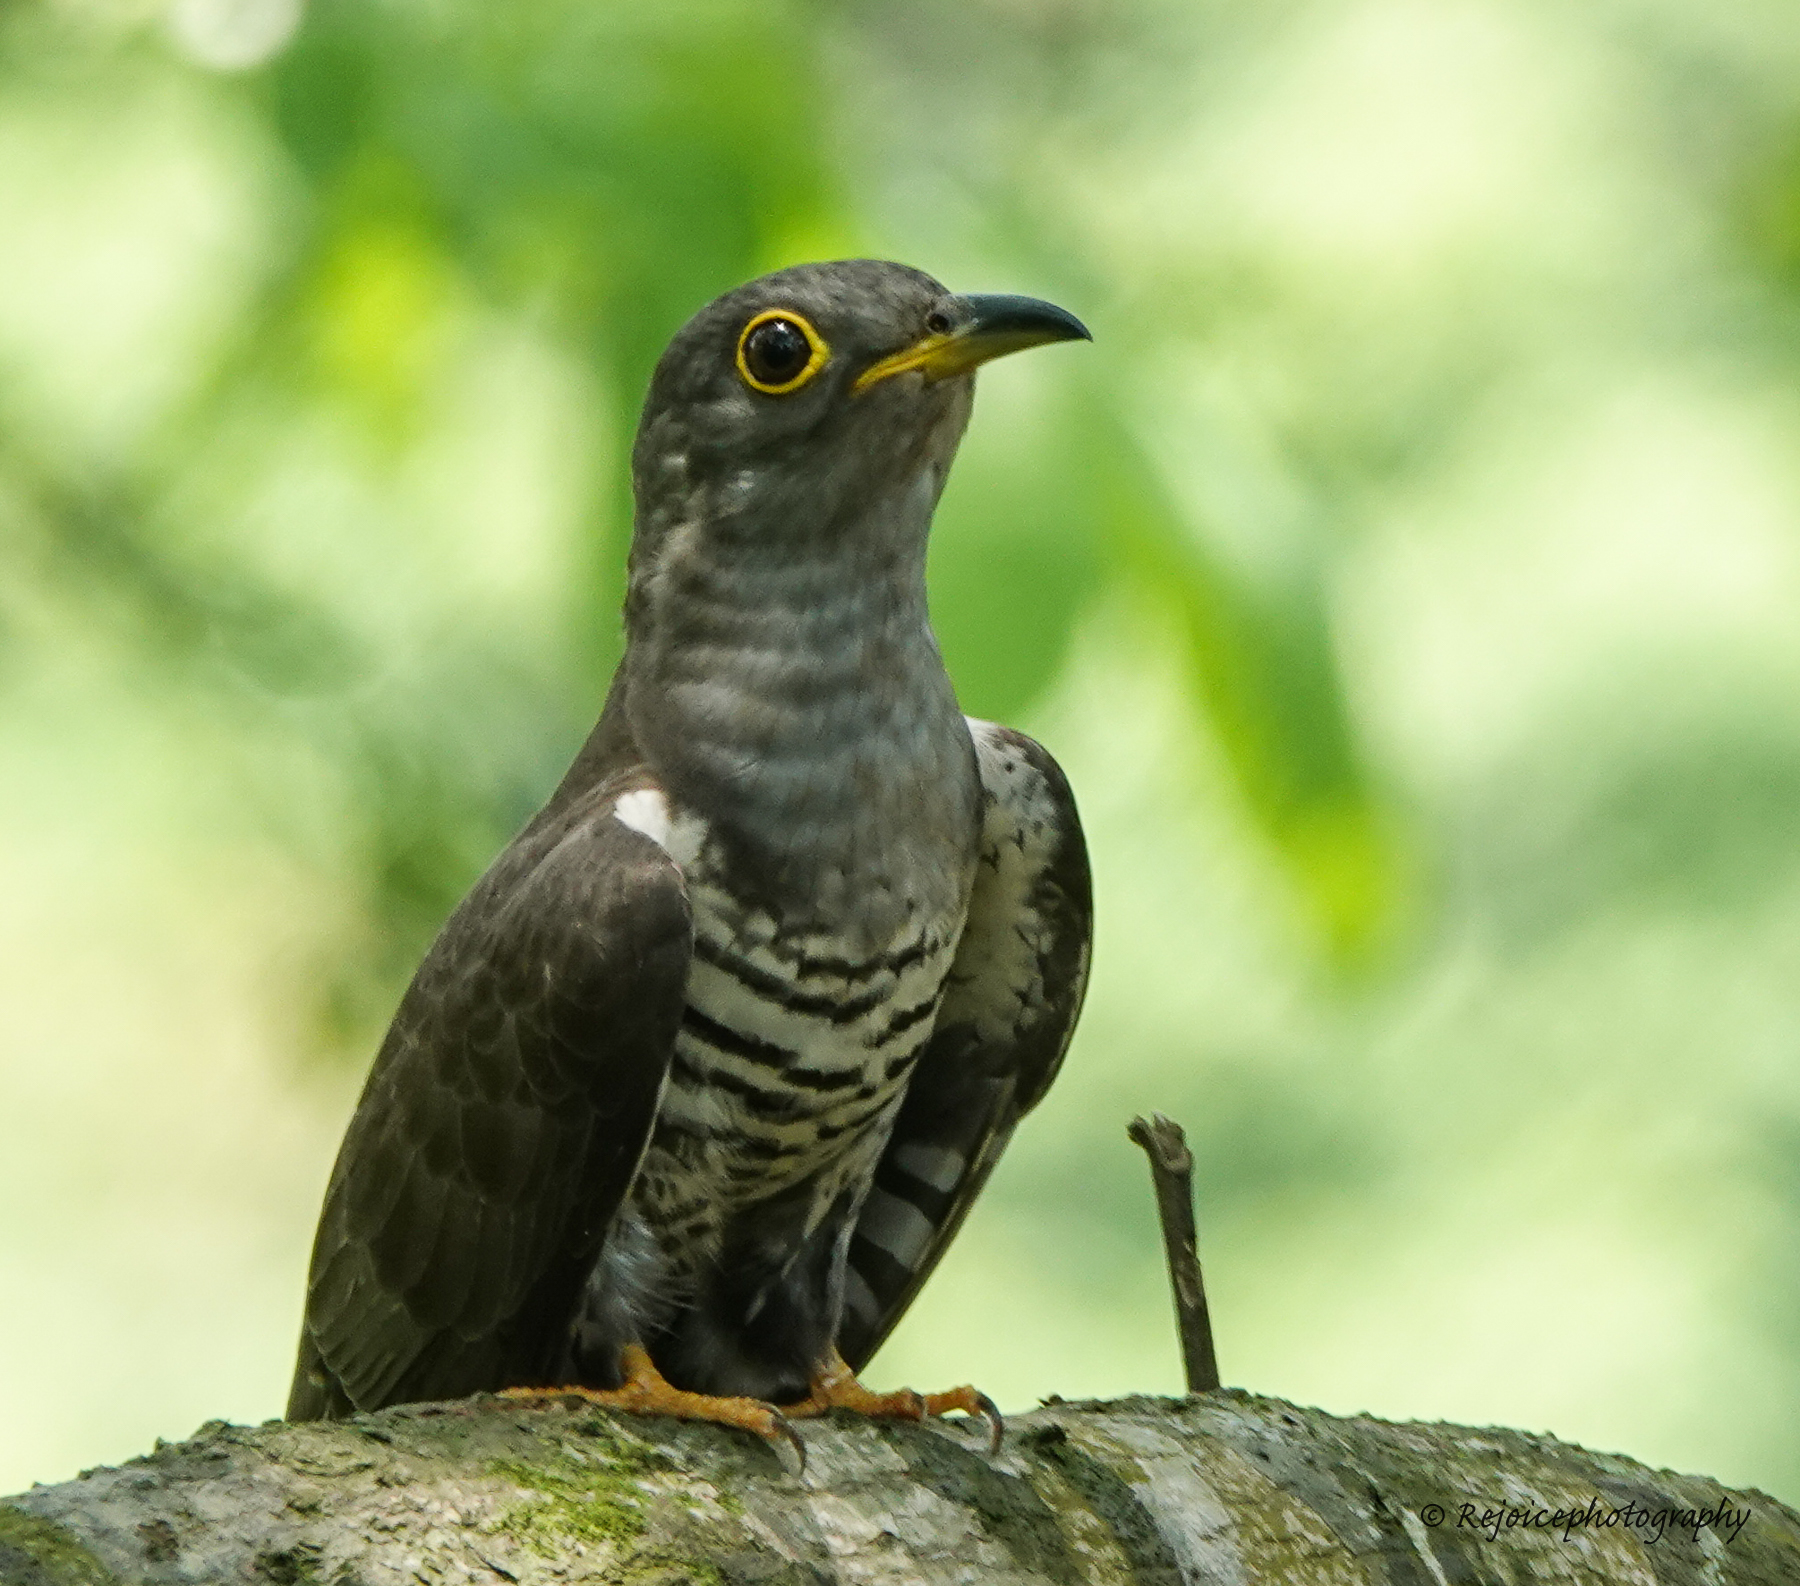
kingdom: Animalia
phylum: Chordata
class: Aves
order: Cuculiformes
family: Cuculidae
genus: Cuculus
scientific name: Cuculus micropterus
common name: Indian cuckoo
